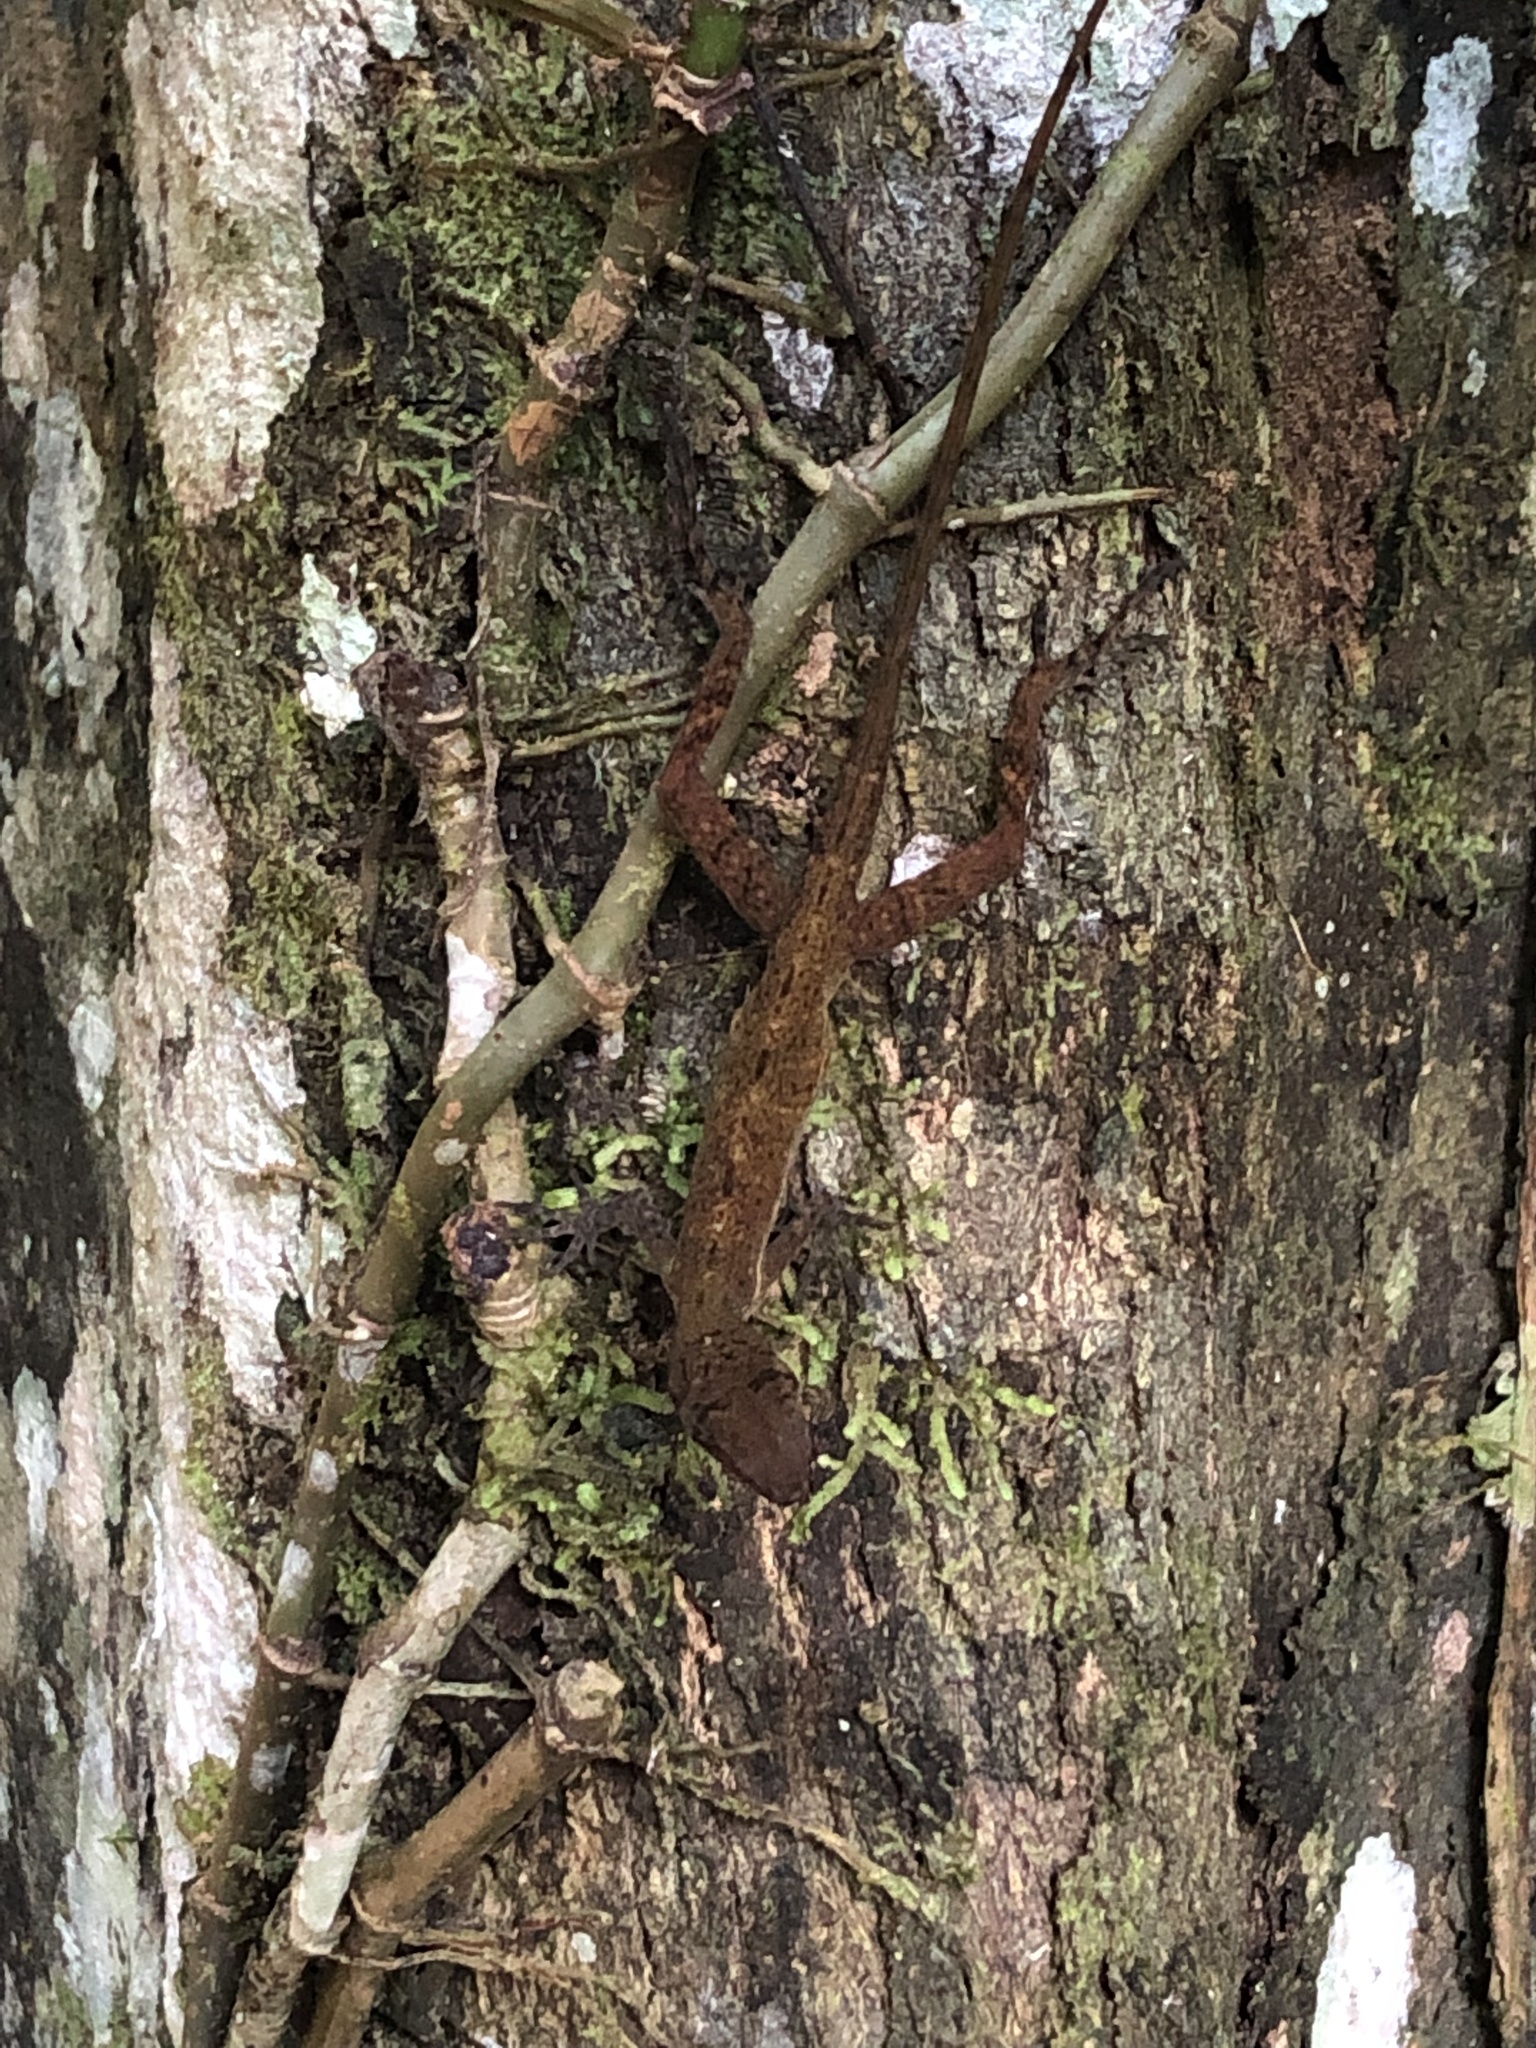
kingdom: Animalia
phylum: Chordata
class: Squamata
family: Dactyloidae
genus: Anolis
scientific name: Anolis osa
